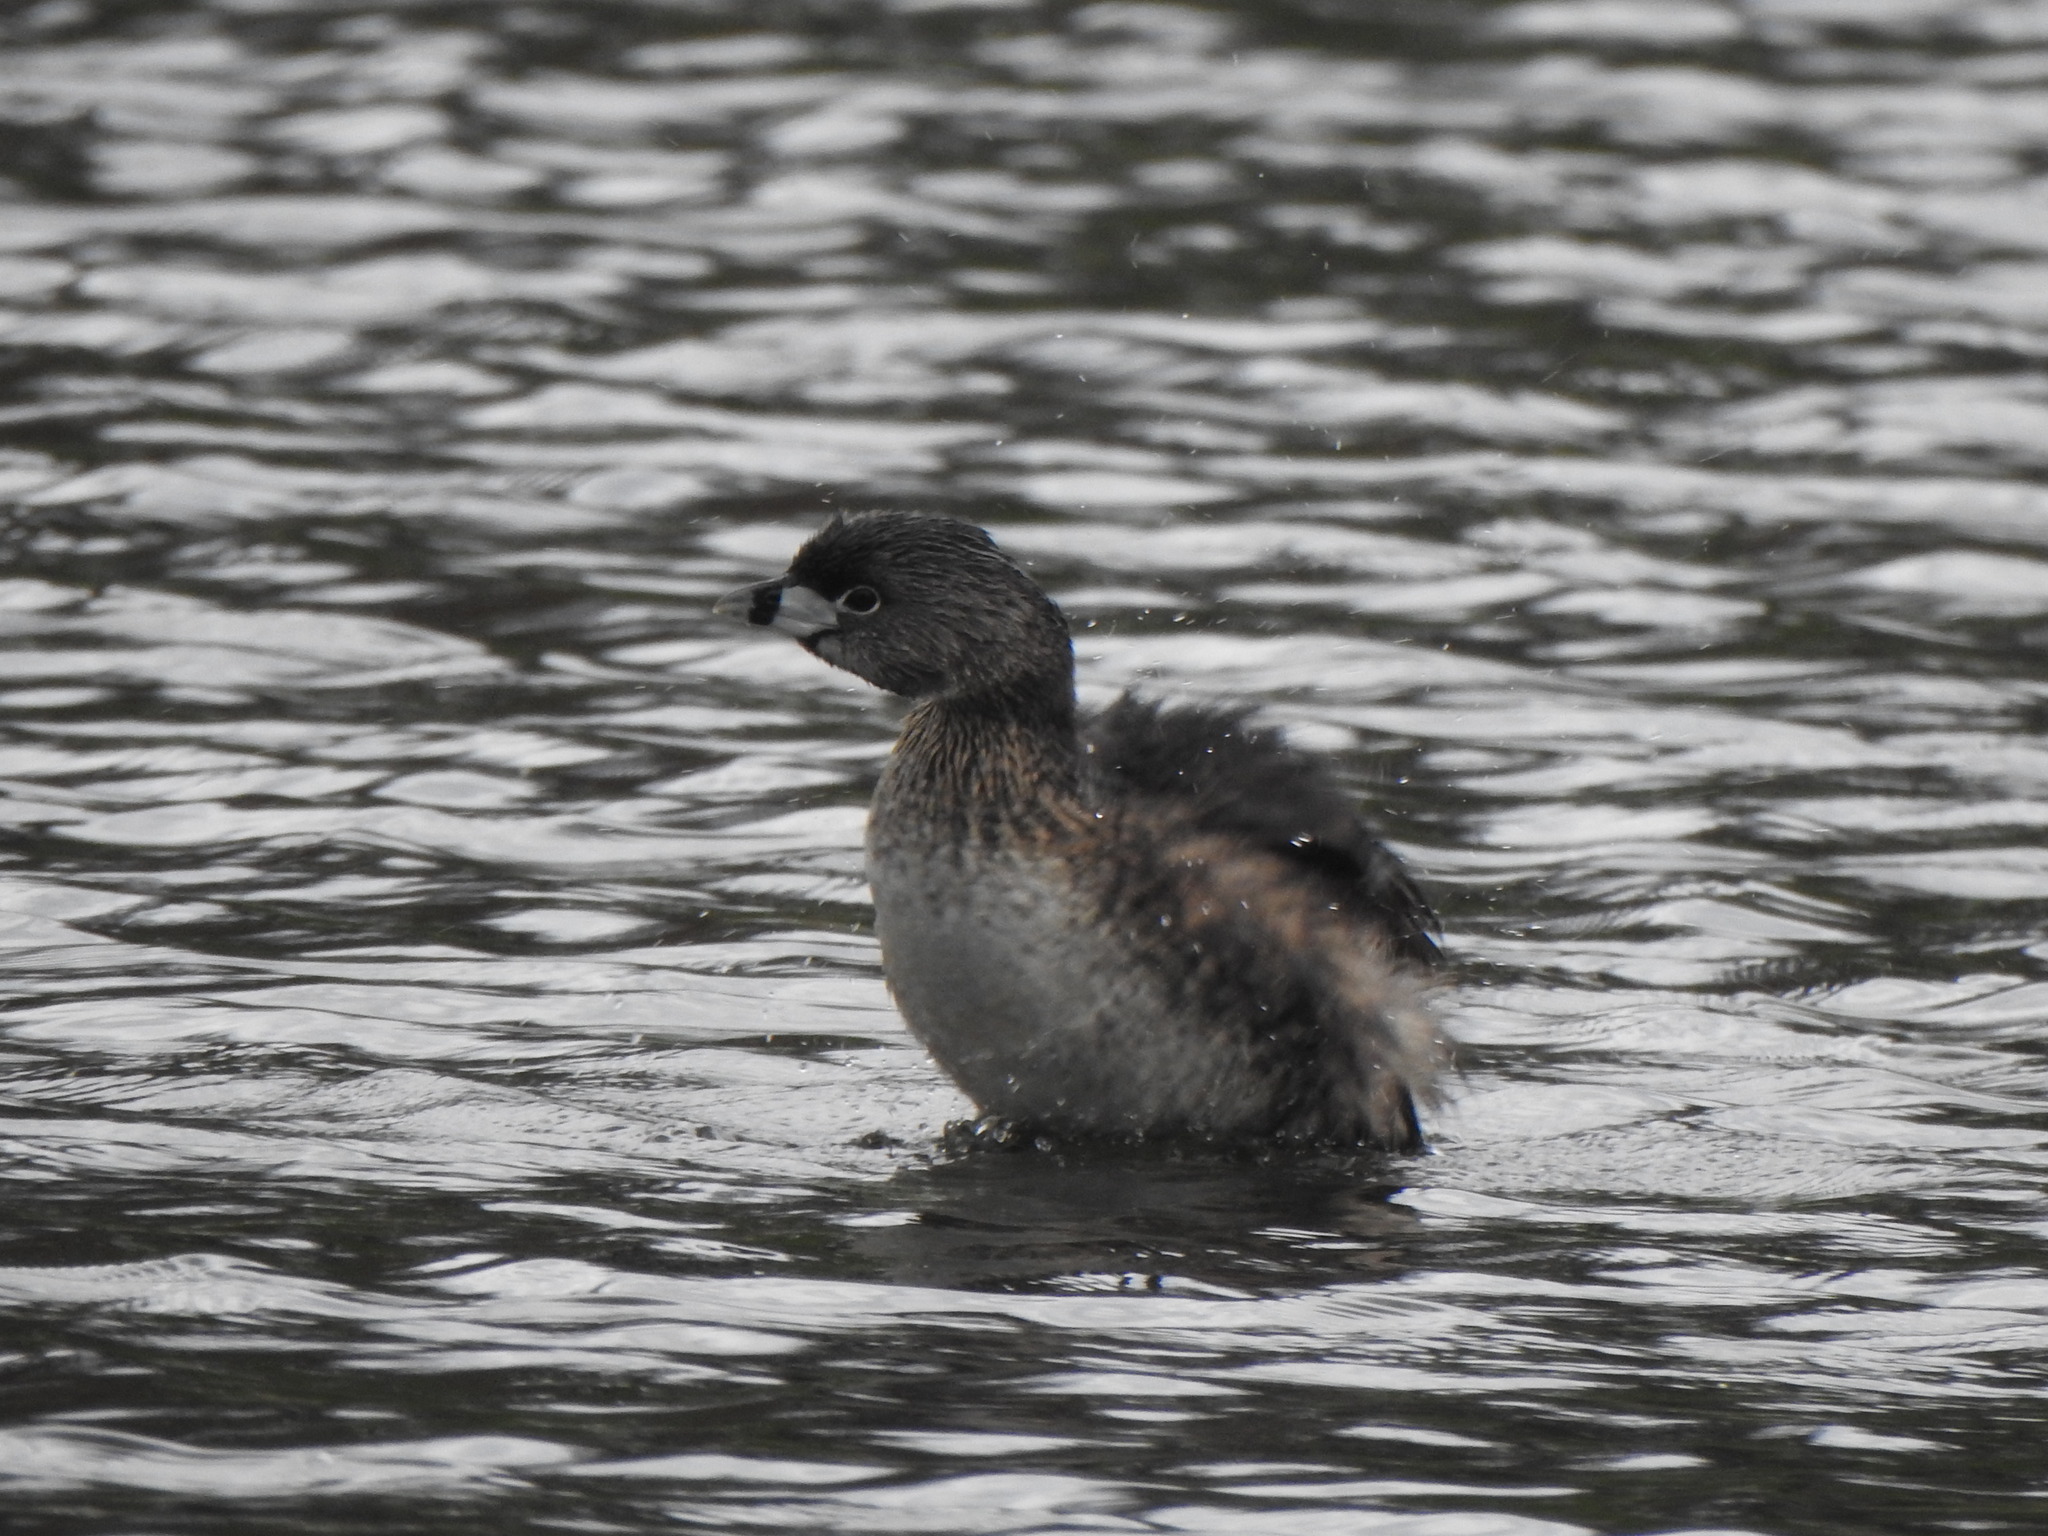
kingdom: Animalia
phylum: Chordata
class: Aves
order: Podicipediformes
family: Podicipedidae
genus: Podilymbus
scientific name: Podilymbus podiceps
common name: Pied-billed grebe
